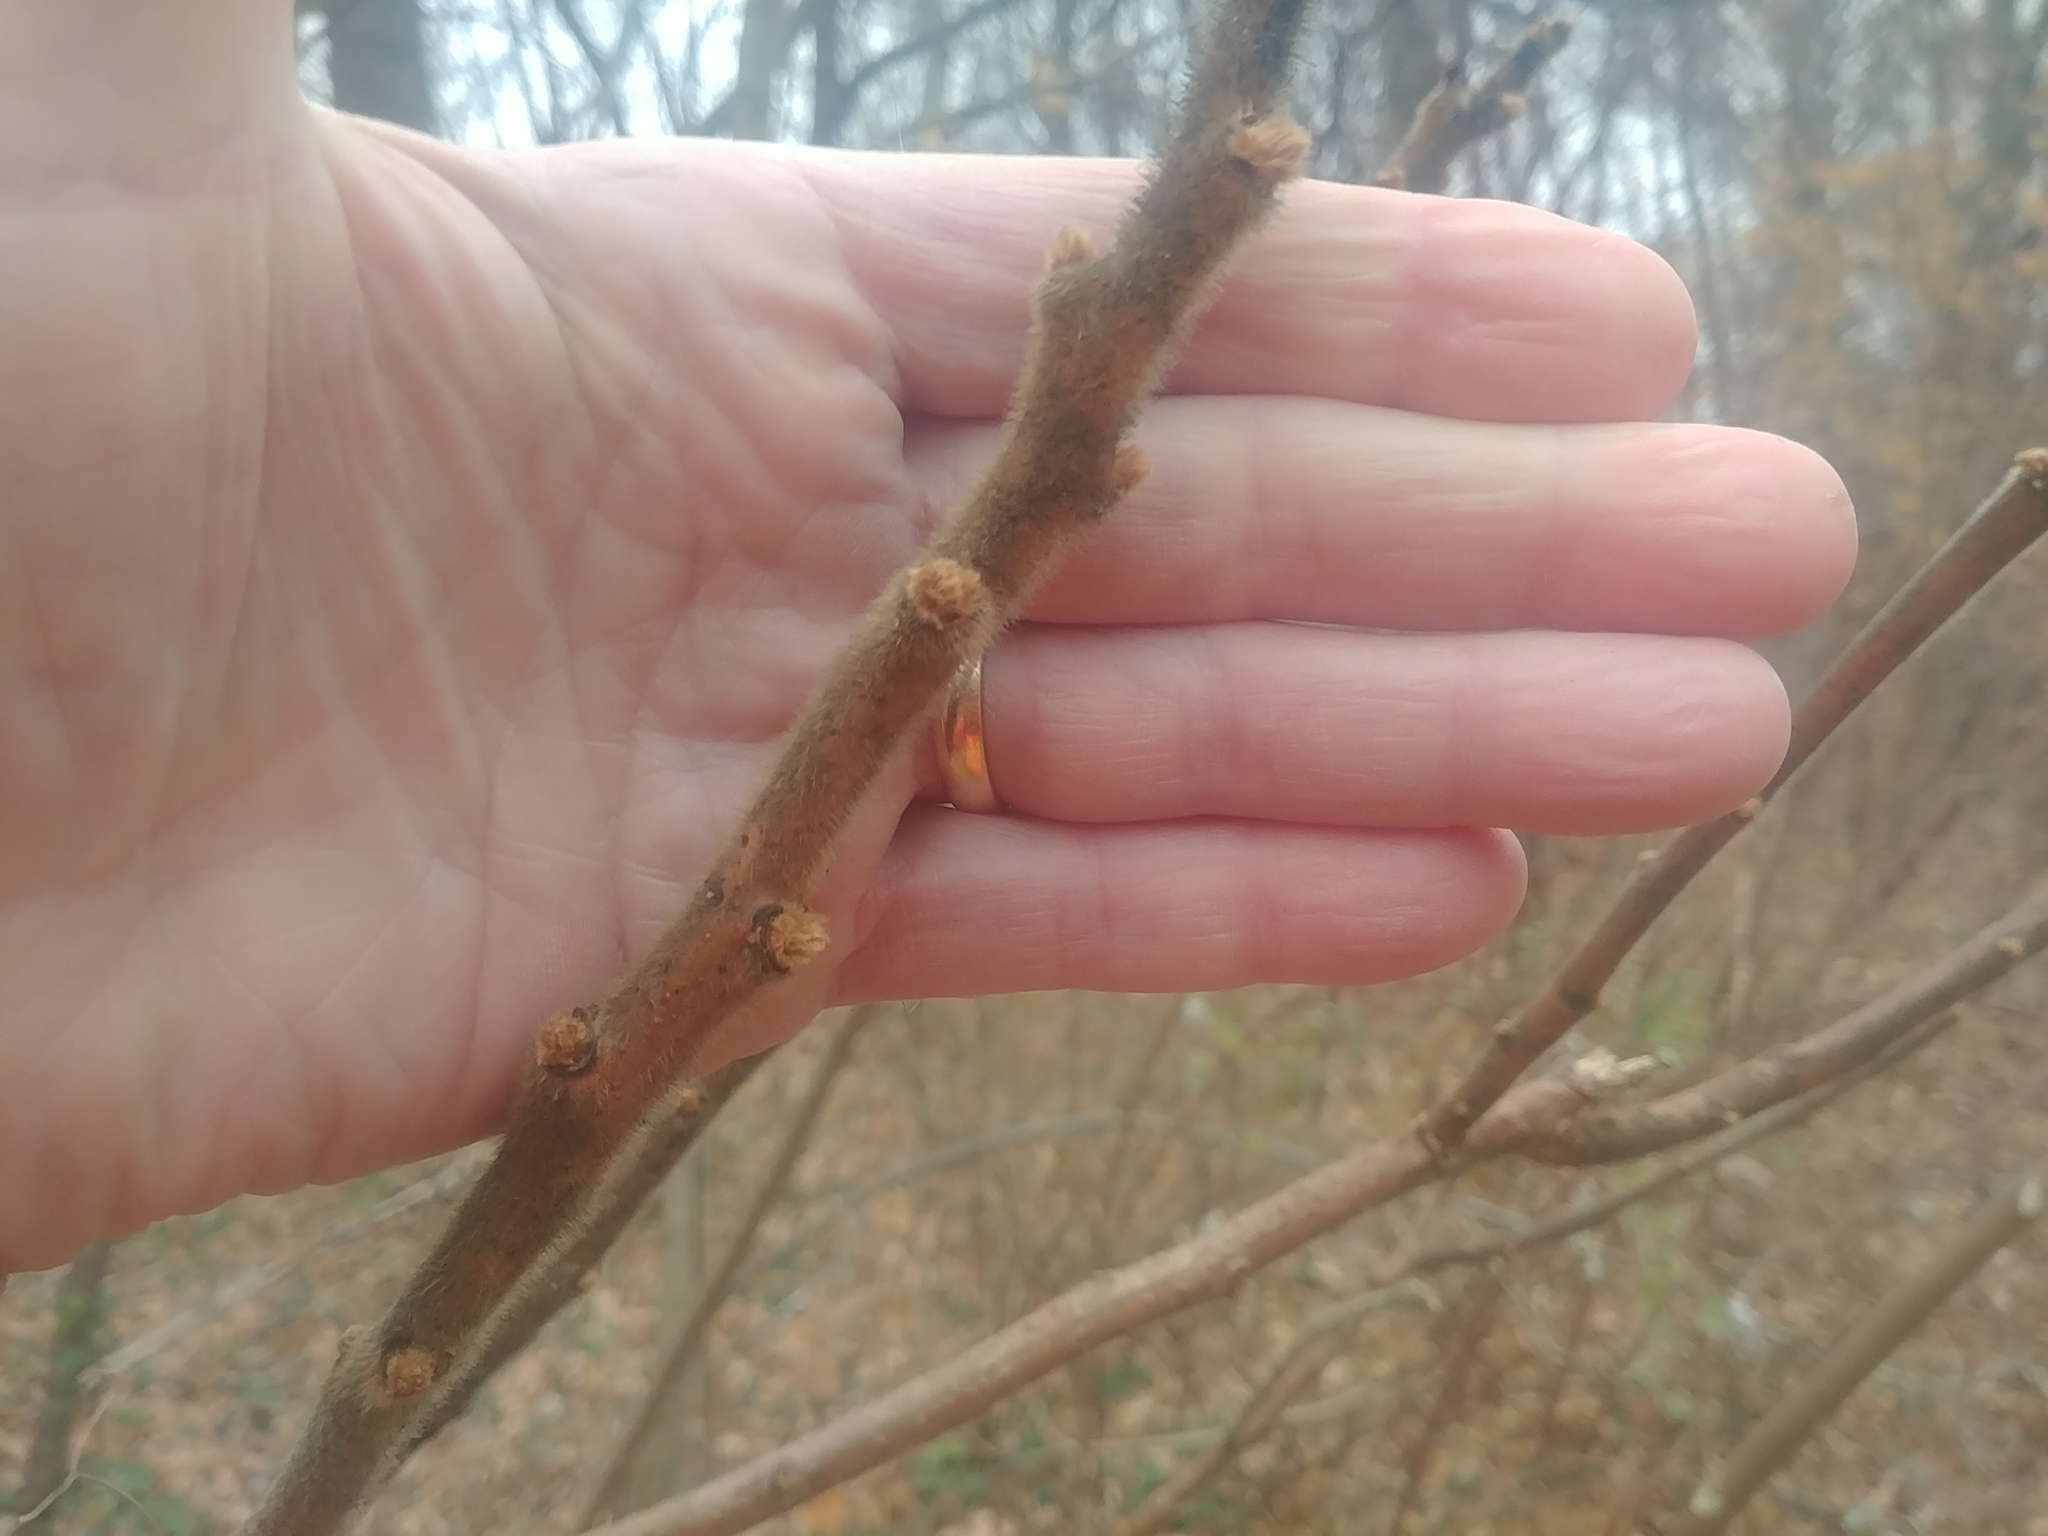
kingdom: Plantae
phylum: Tracheophyta
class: Magnoliopsida
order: Sapindales
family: Anacardiaceae
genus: Rhus
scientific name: Rhus typhina
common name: Staghorn sumac
